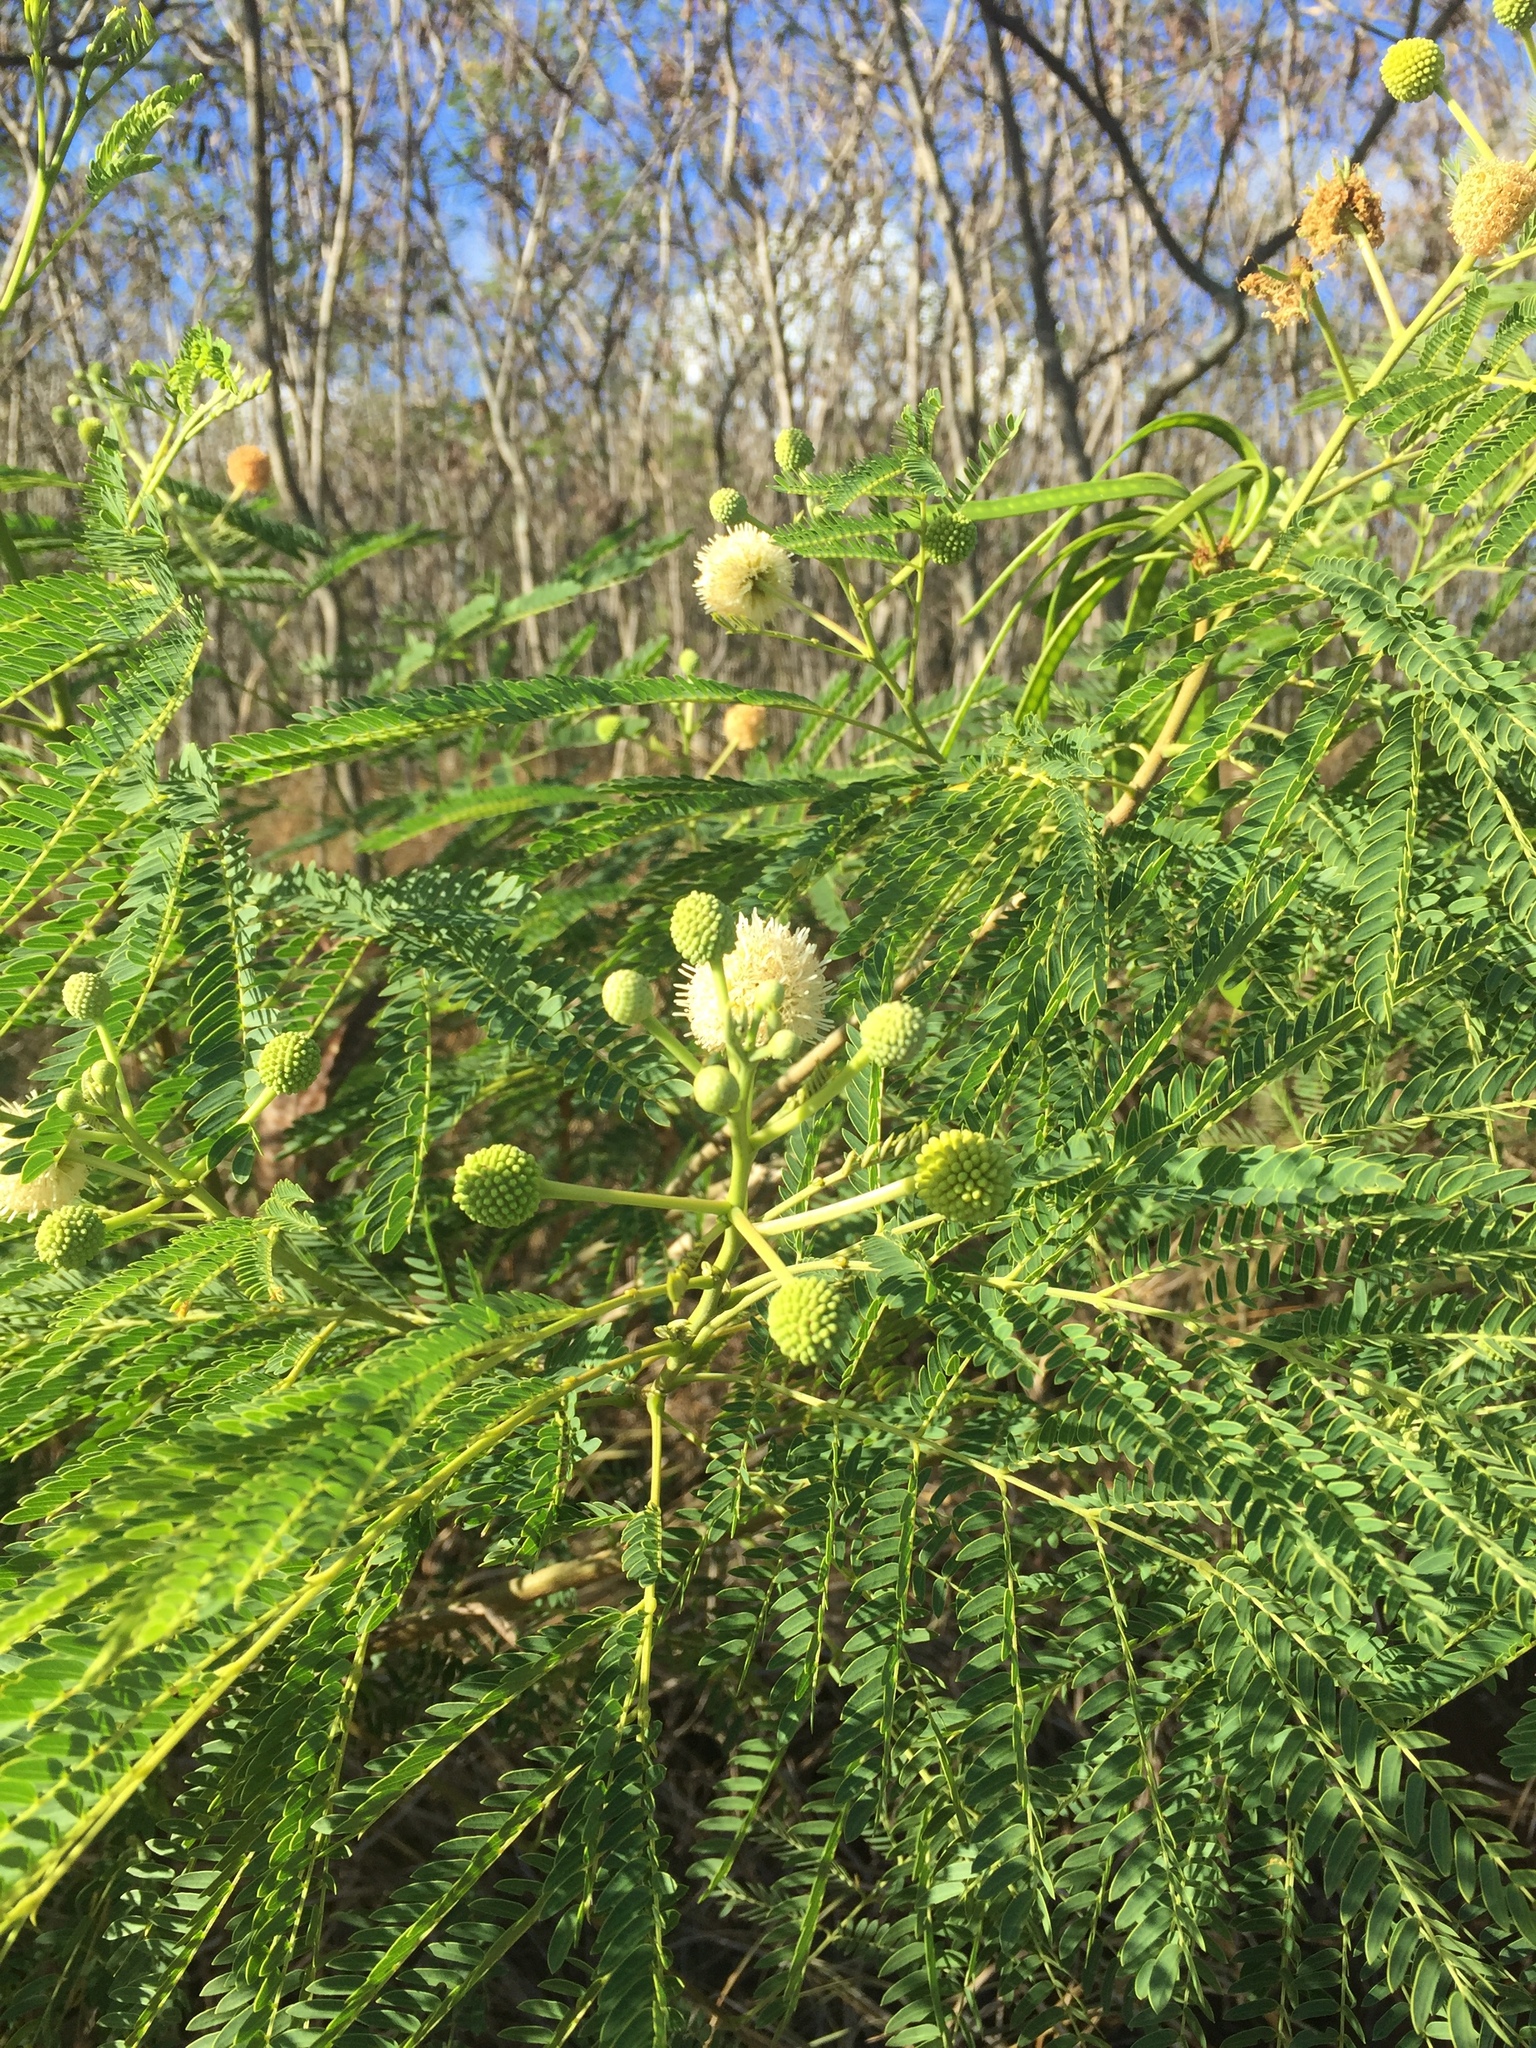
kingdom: Plantae
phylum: Tracheophyta
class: Magnoliopsida
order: Fabales
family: Fabaceae
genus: Leucaena
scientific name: Leucaena leucocephala
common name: White leadtree
